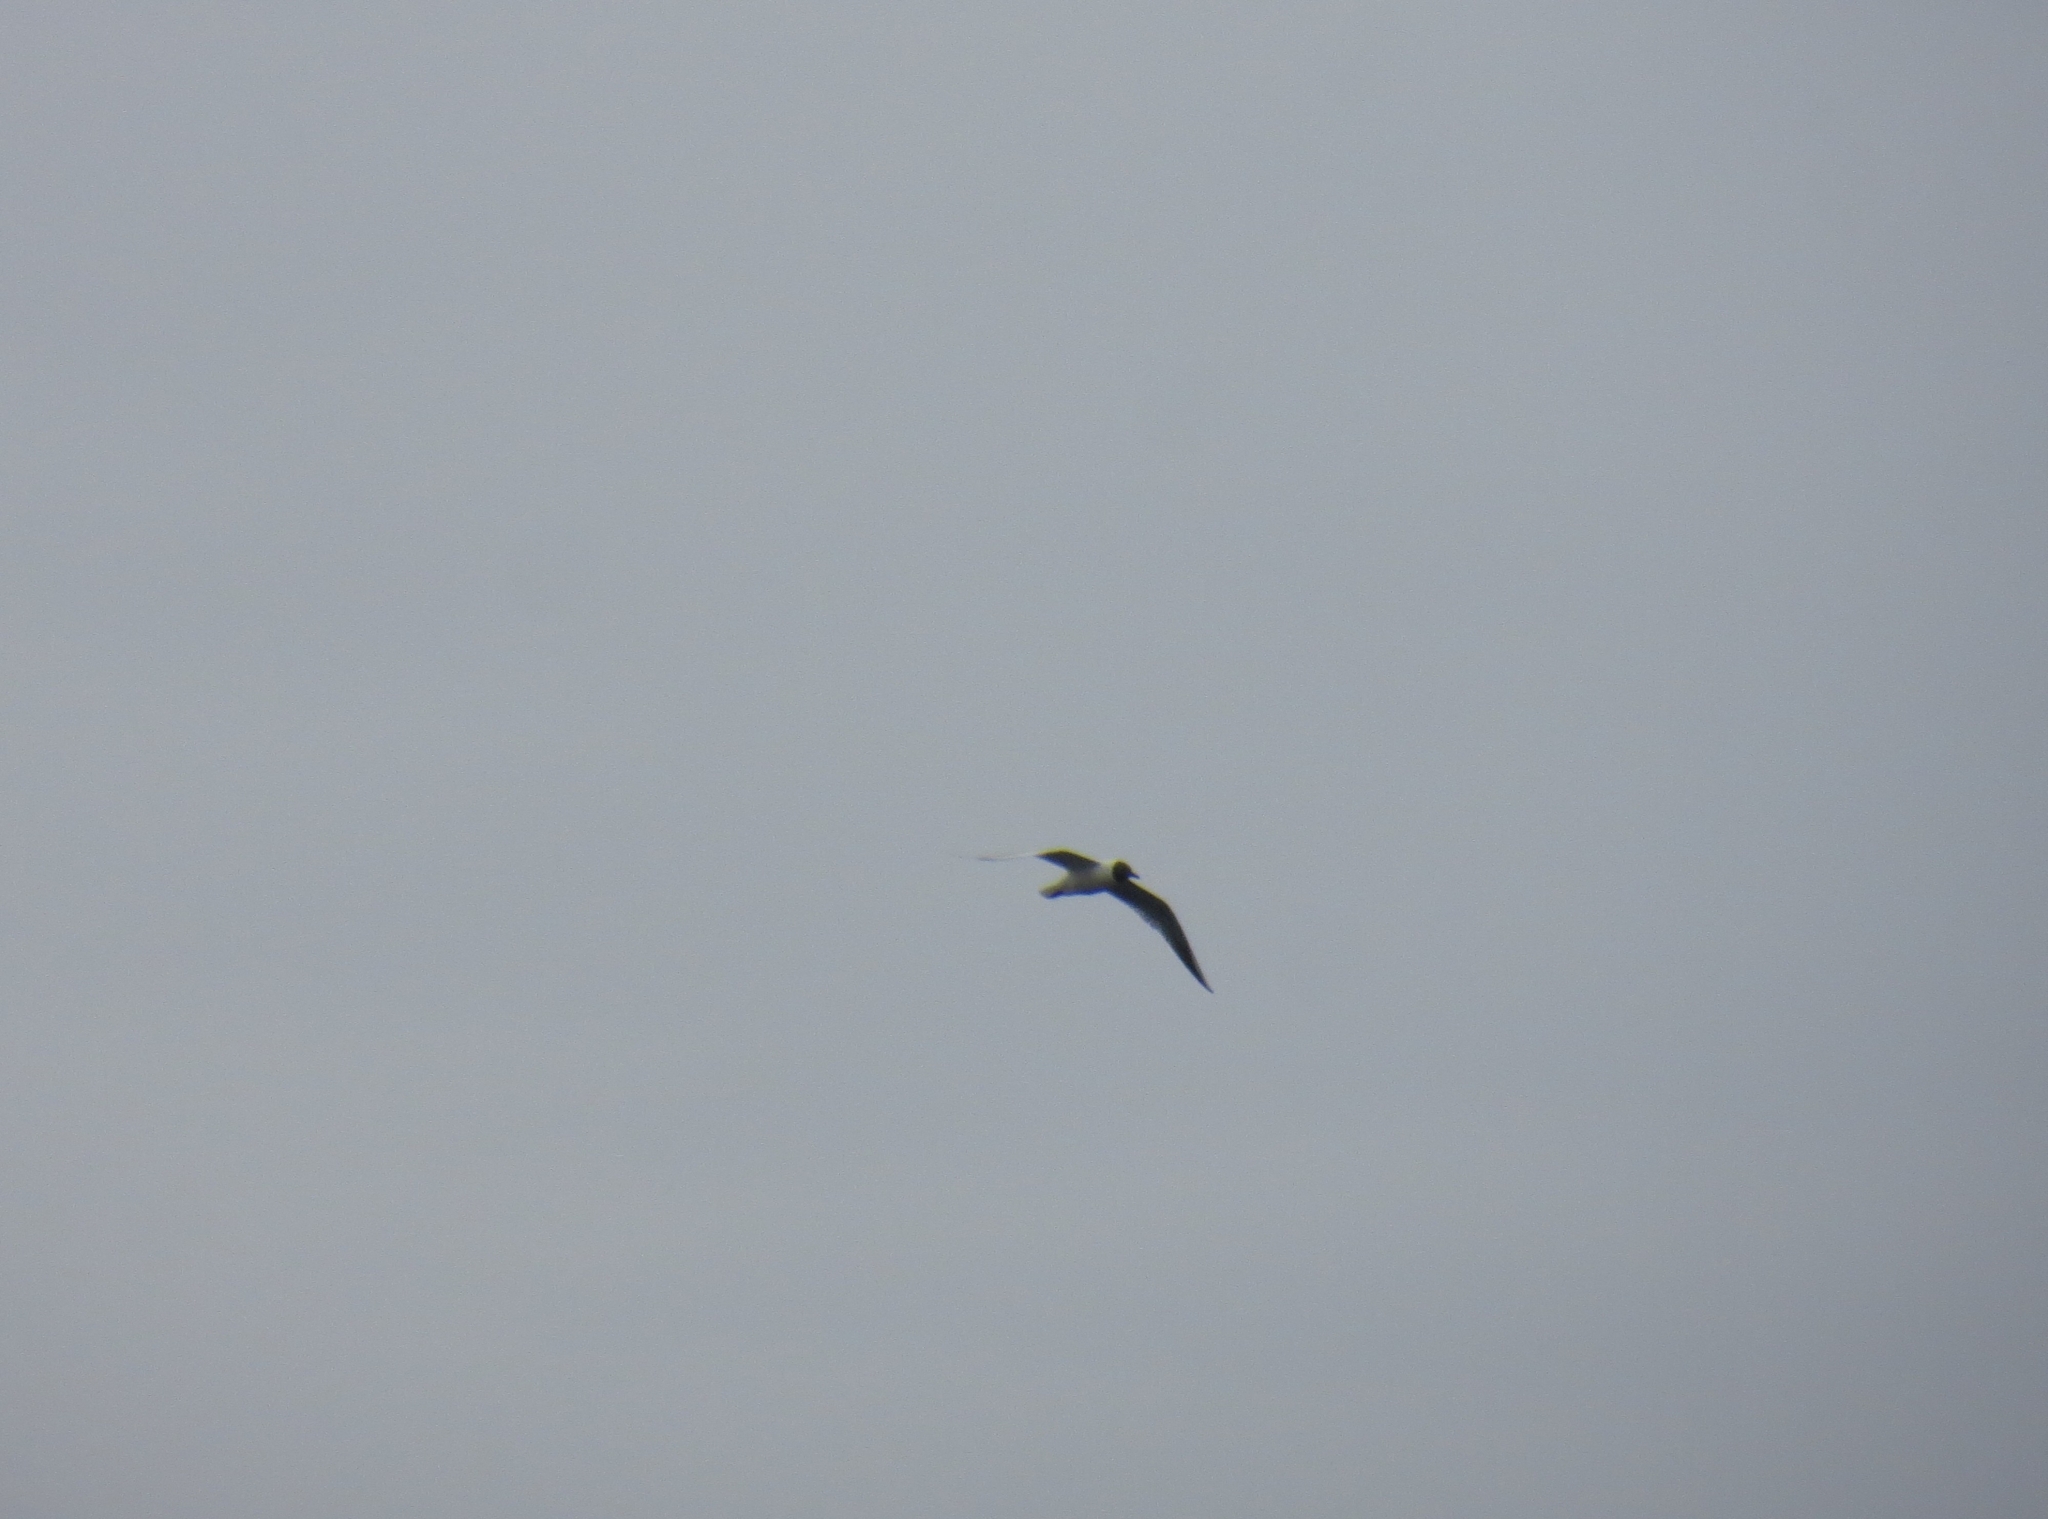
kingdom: Animalia
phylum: Chordata
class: Aves
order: Charadriiformes
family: Laridae
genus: Chroicocephalus
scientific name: Chroicocephalus ridibundus
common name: Black-headed gull
